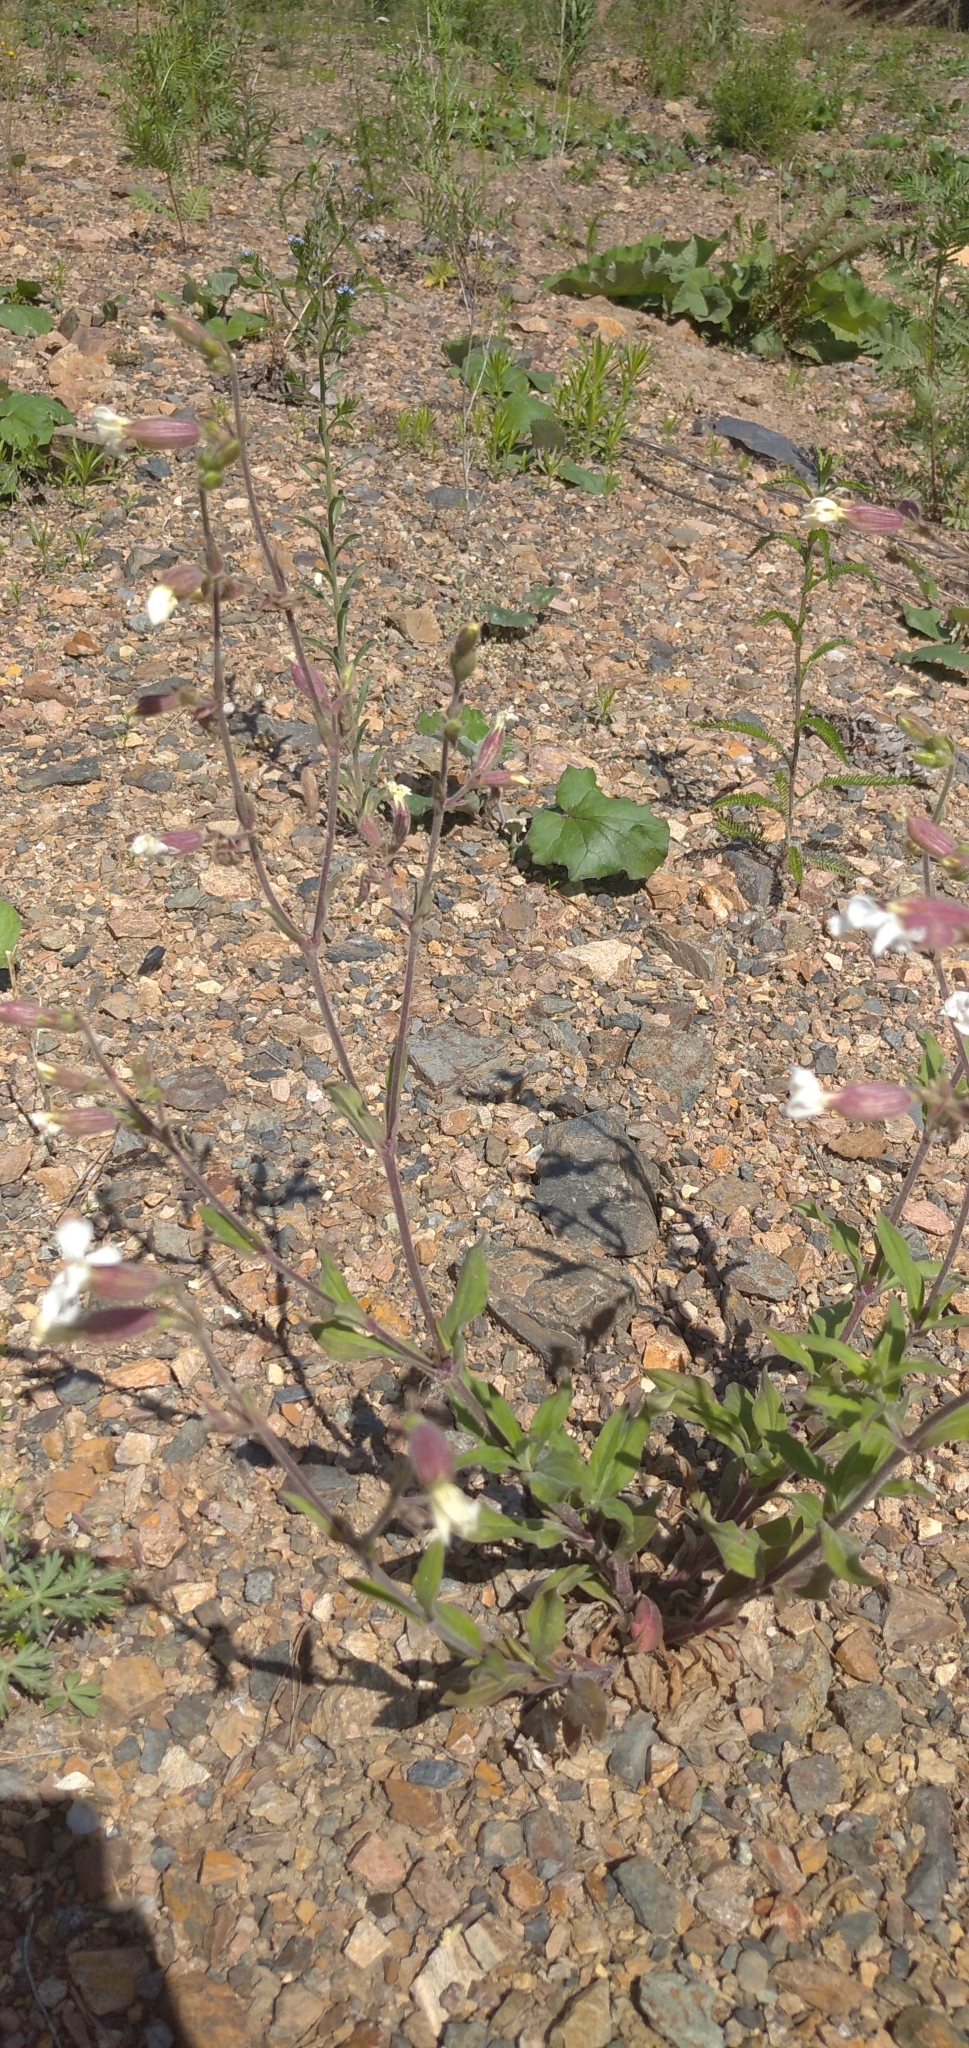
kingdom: Plantae
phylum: Tracheophyta
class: Magnoliopsida
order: Caryophyllales
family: Caryophyllaceae
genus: Silene
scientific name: Silene latifolia
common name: White campion
